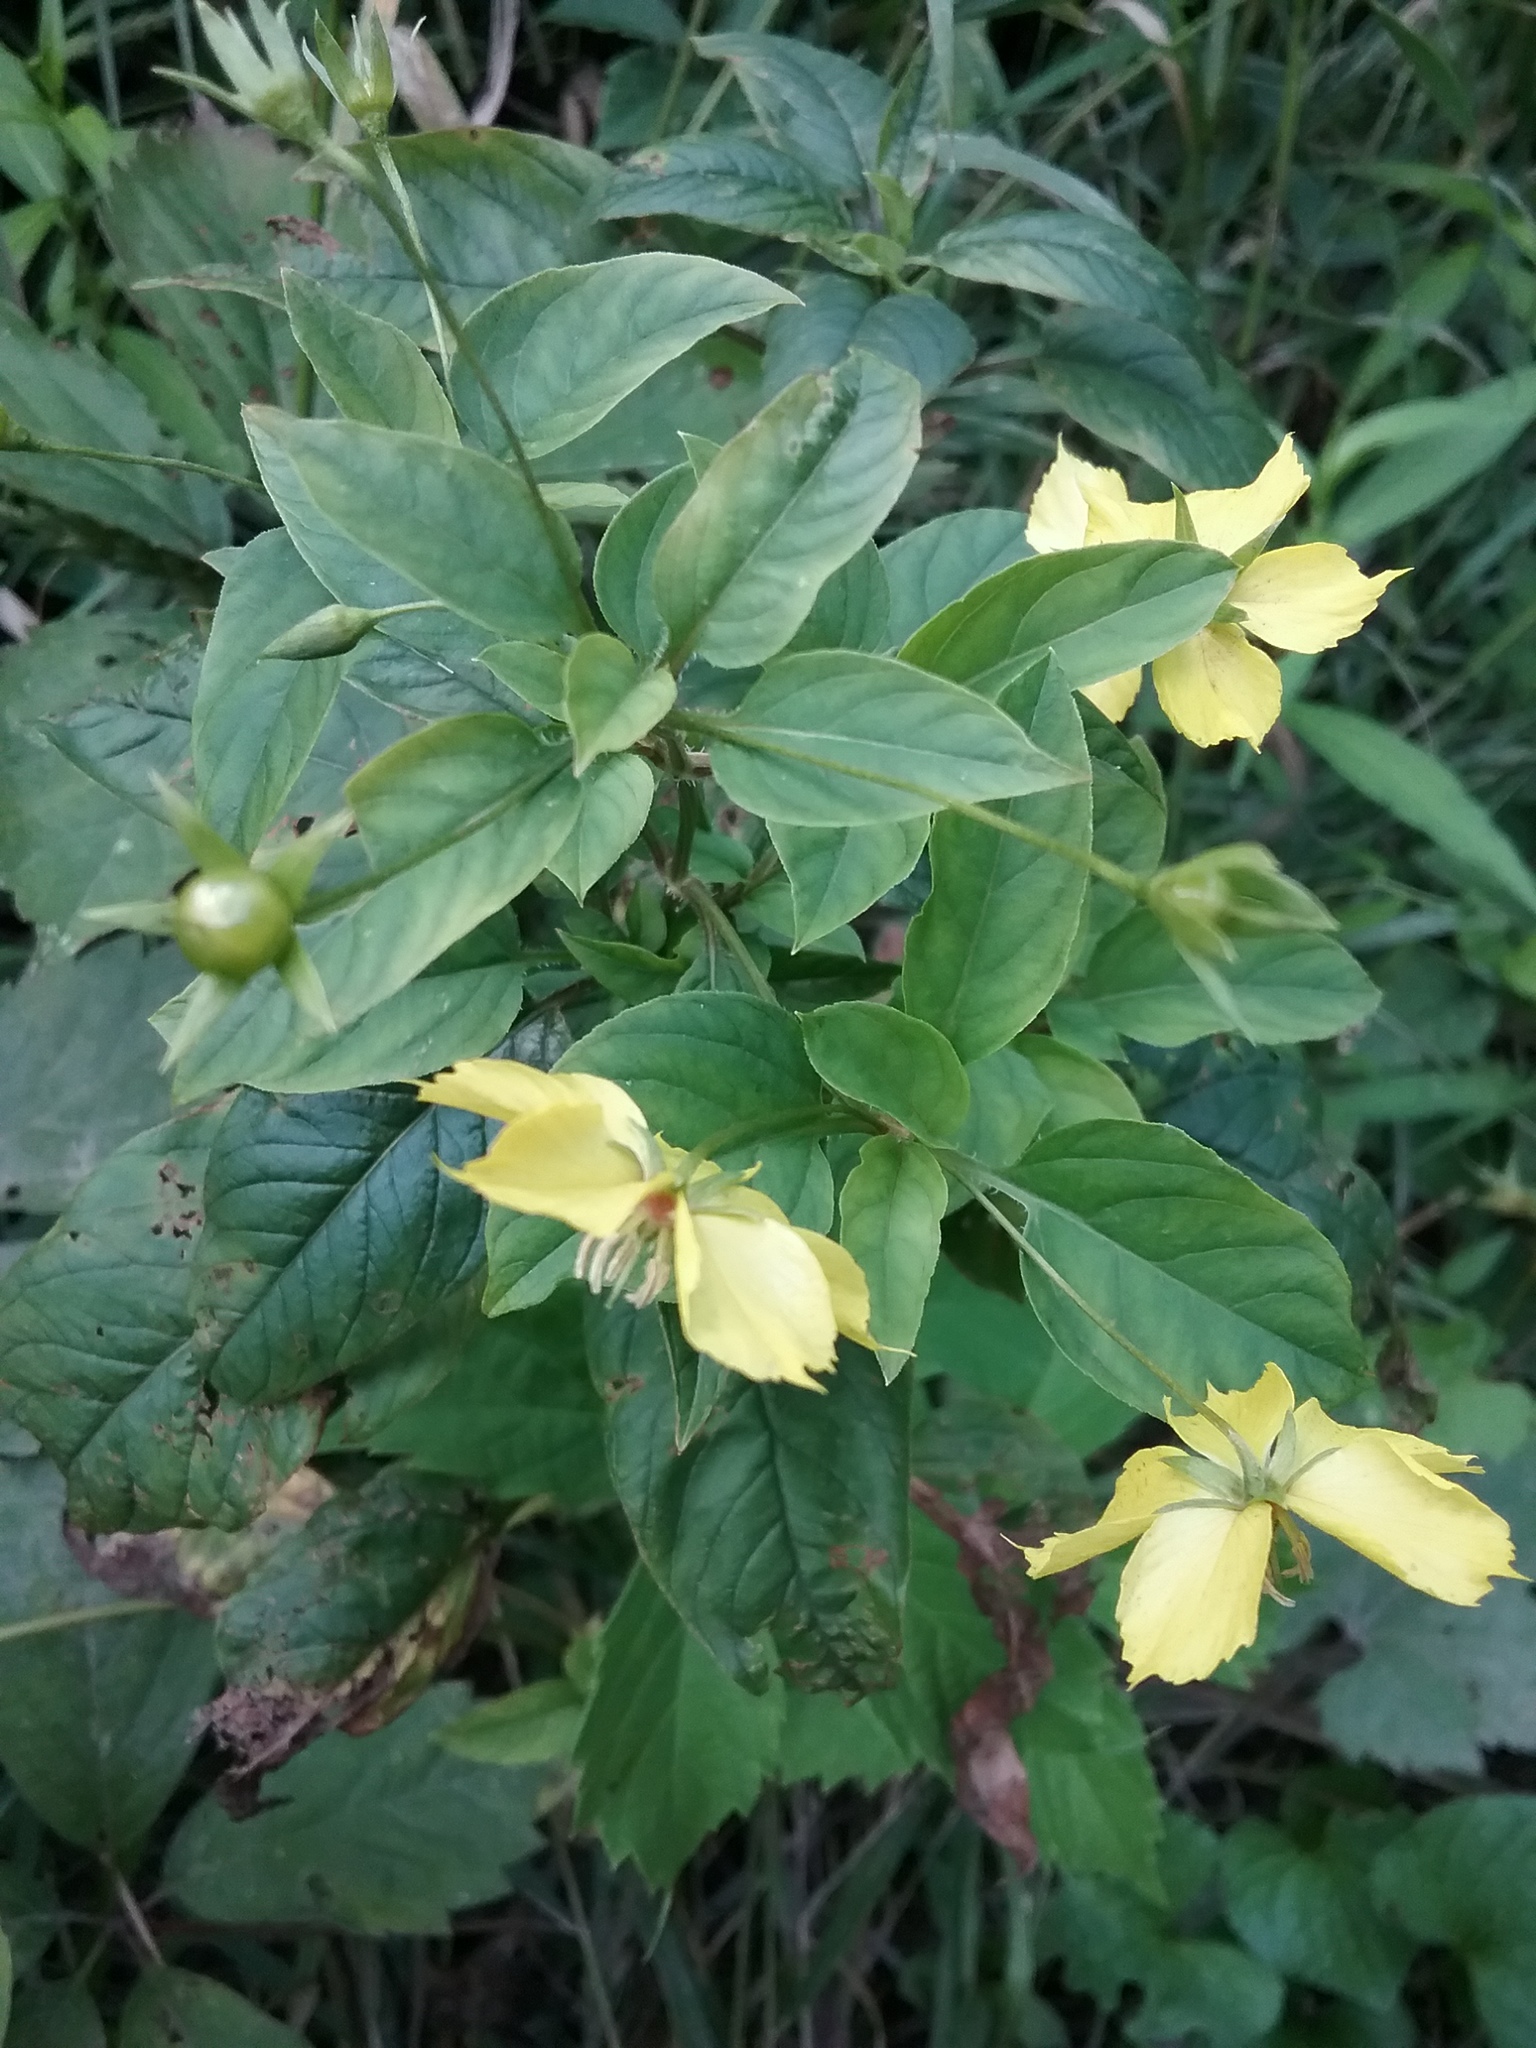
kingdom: Plantae
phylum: Tracheophyta
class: Magnoliopsida
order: Ericales
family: Primulaceae
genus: Lysimachia
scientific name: Lysimachia ciliata
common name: Fringed loosestrife
